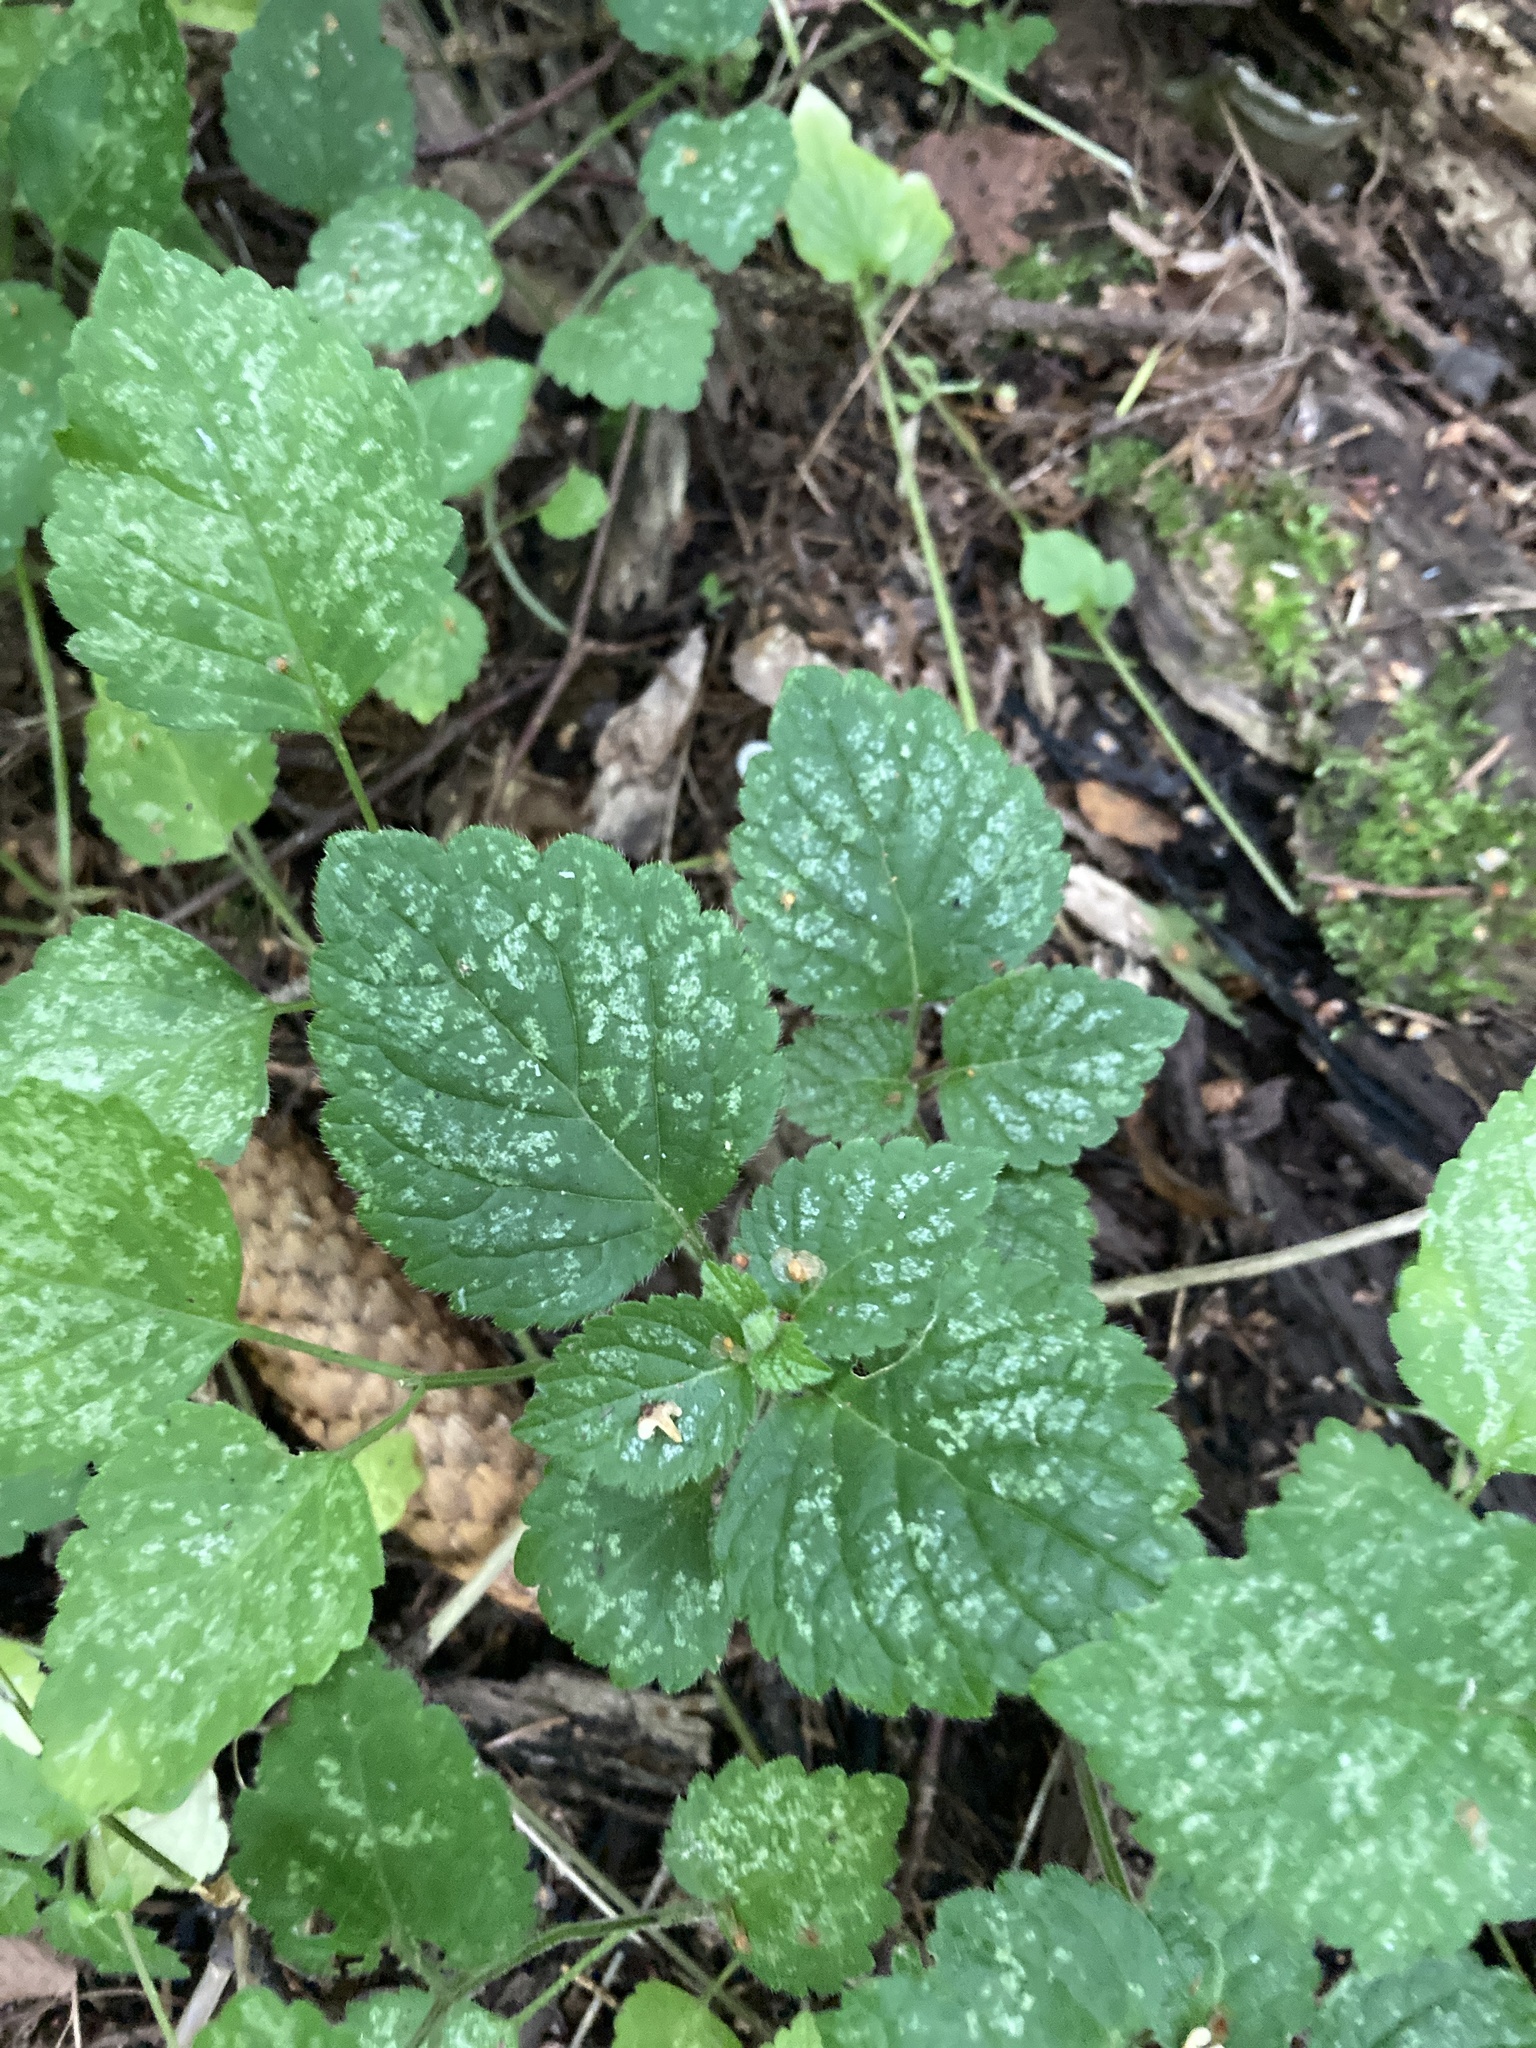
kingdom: Plantae
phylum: Tracheophyta
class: Magnoliopsida
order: Lamiales
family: Lamiaceae
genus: Lamium
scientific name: Lamium galeobdolon
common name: Yellow archangel
